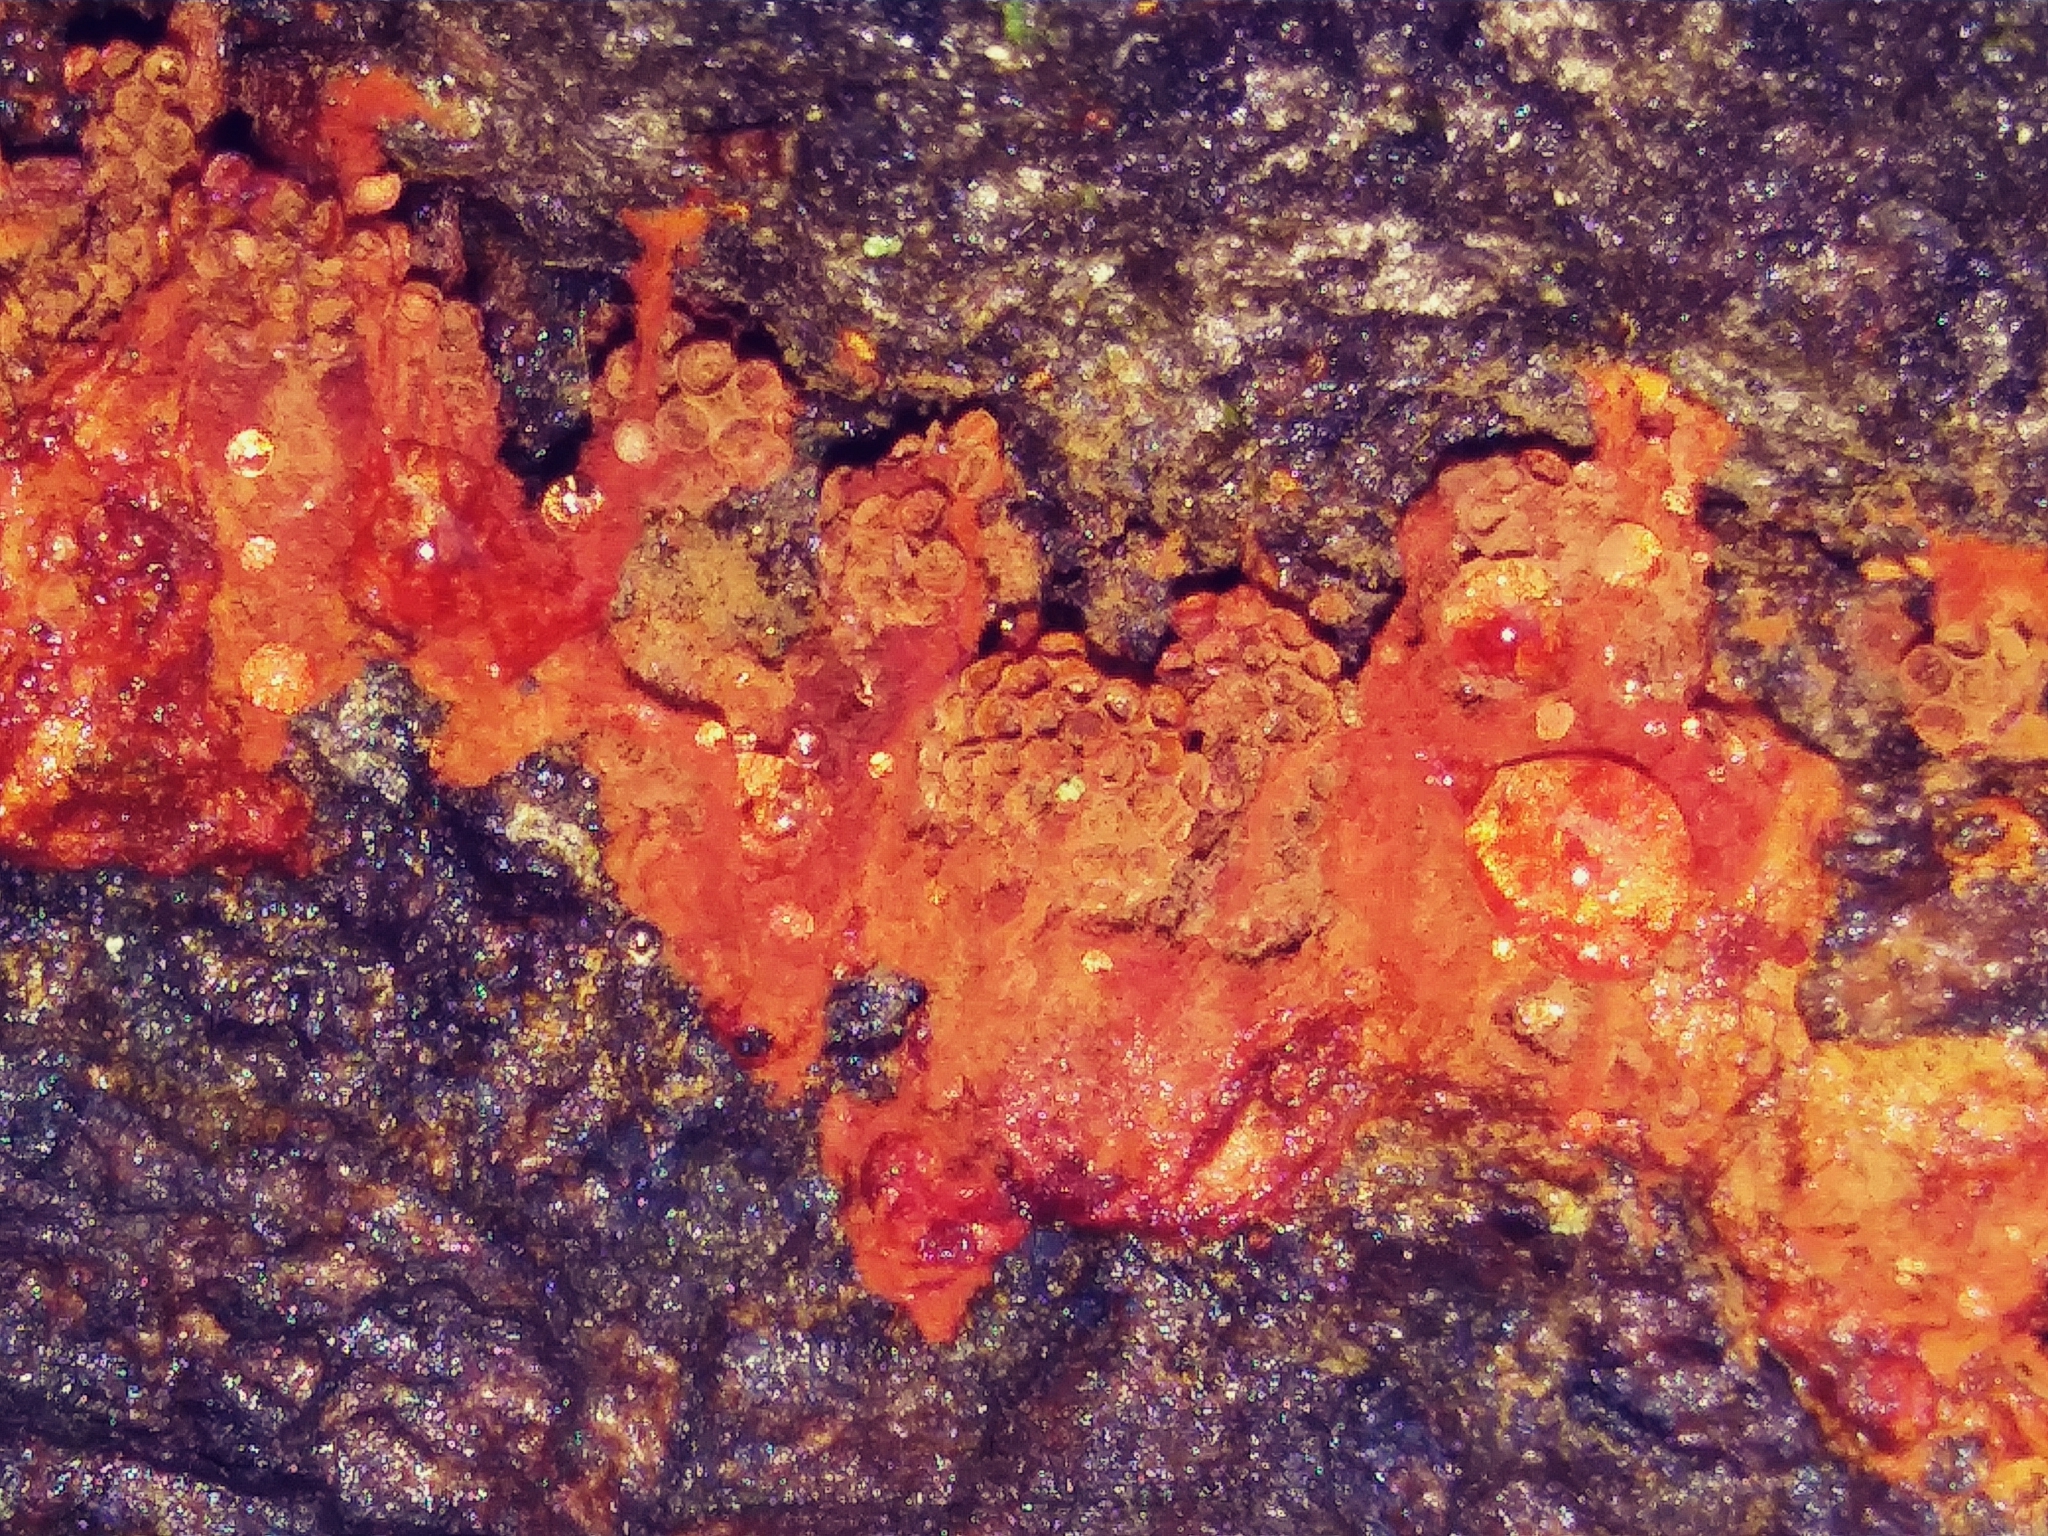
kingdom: Protozoa
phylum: Mycetozoa
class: Myxomycetes
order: Trichiales
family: Trichiaceae
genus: Metatrichia
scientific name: Metatrichia vesparia
